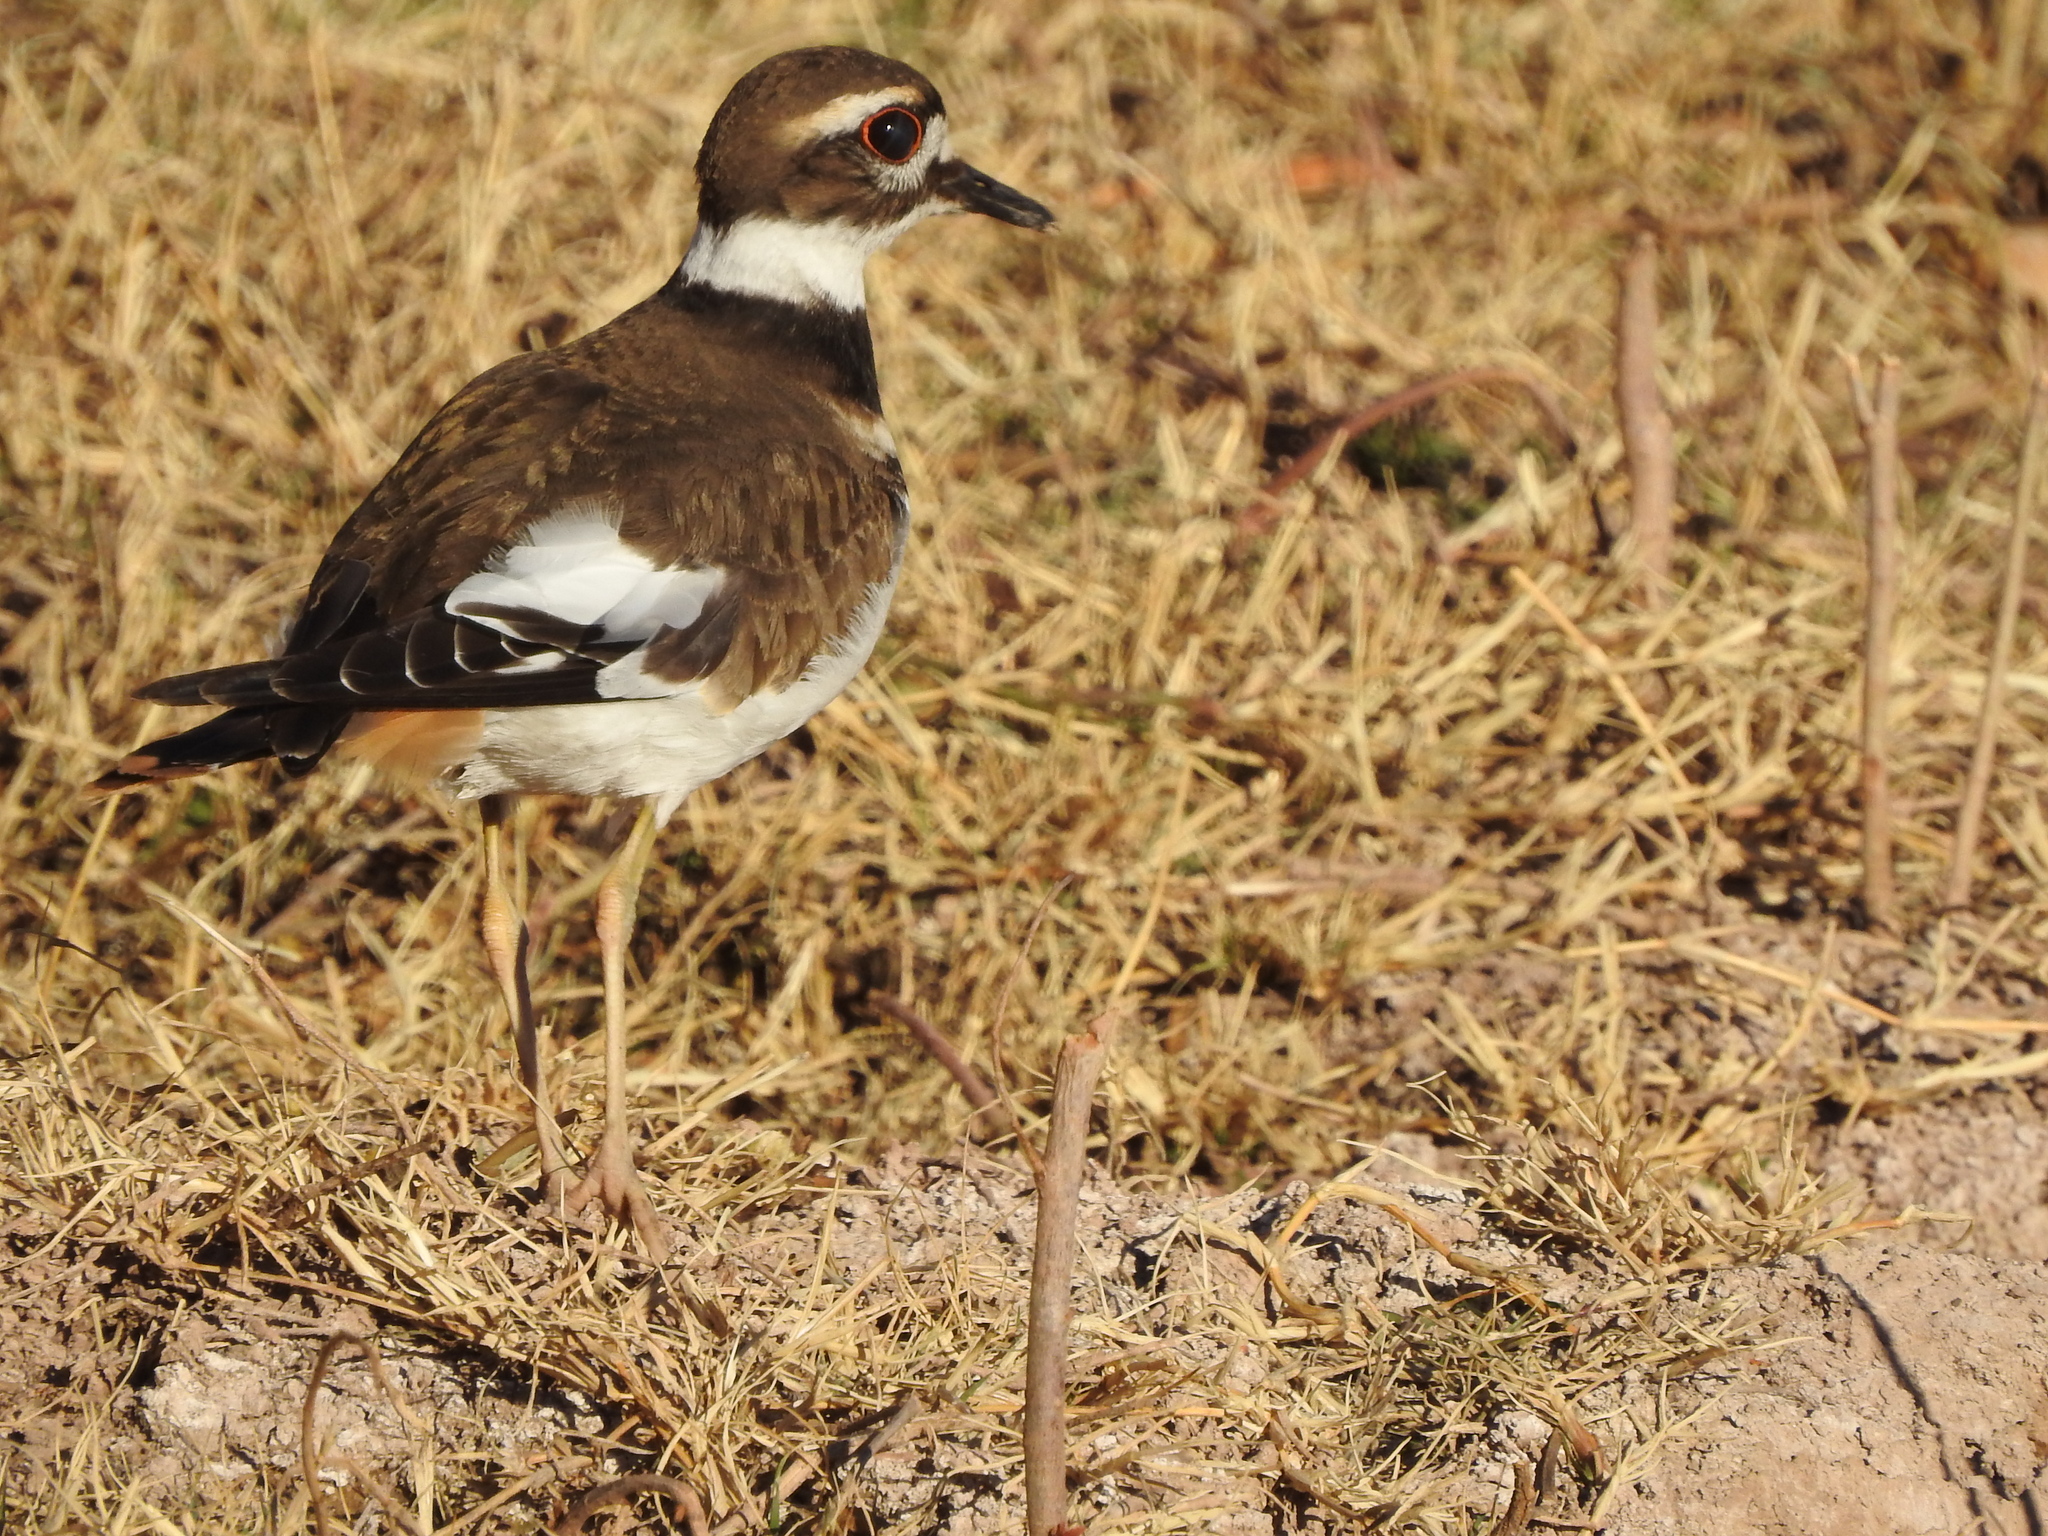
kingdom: Animalia
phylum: Chordata
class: Aves
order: Charadriiformes
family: Charadriidae
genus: Charadrius
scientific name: Charadrius vociferus
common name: Killdeer
